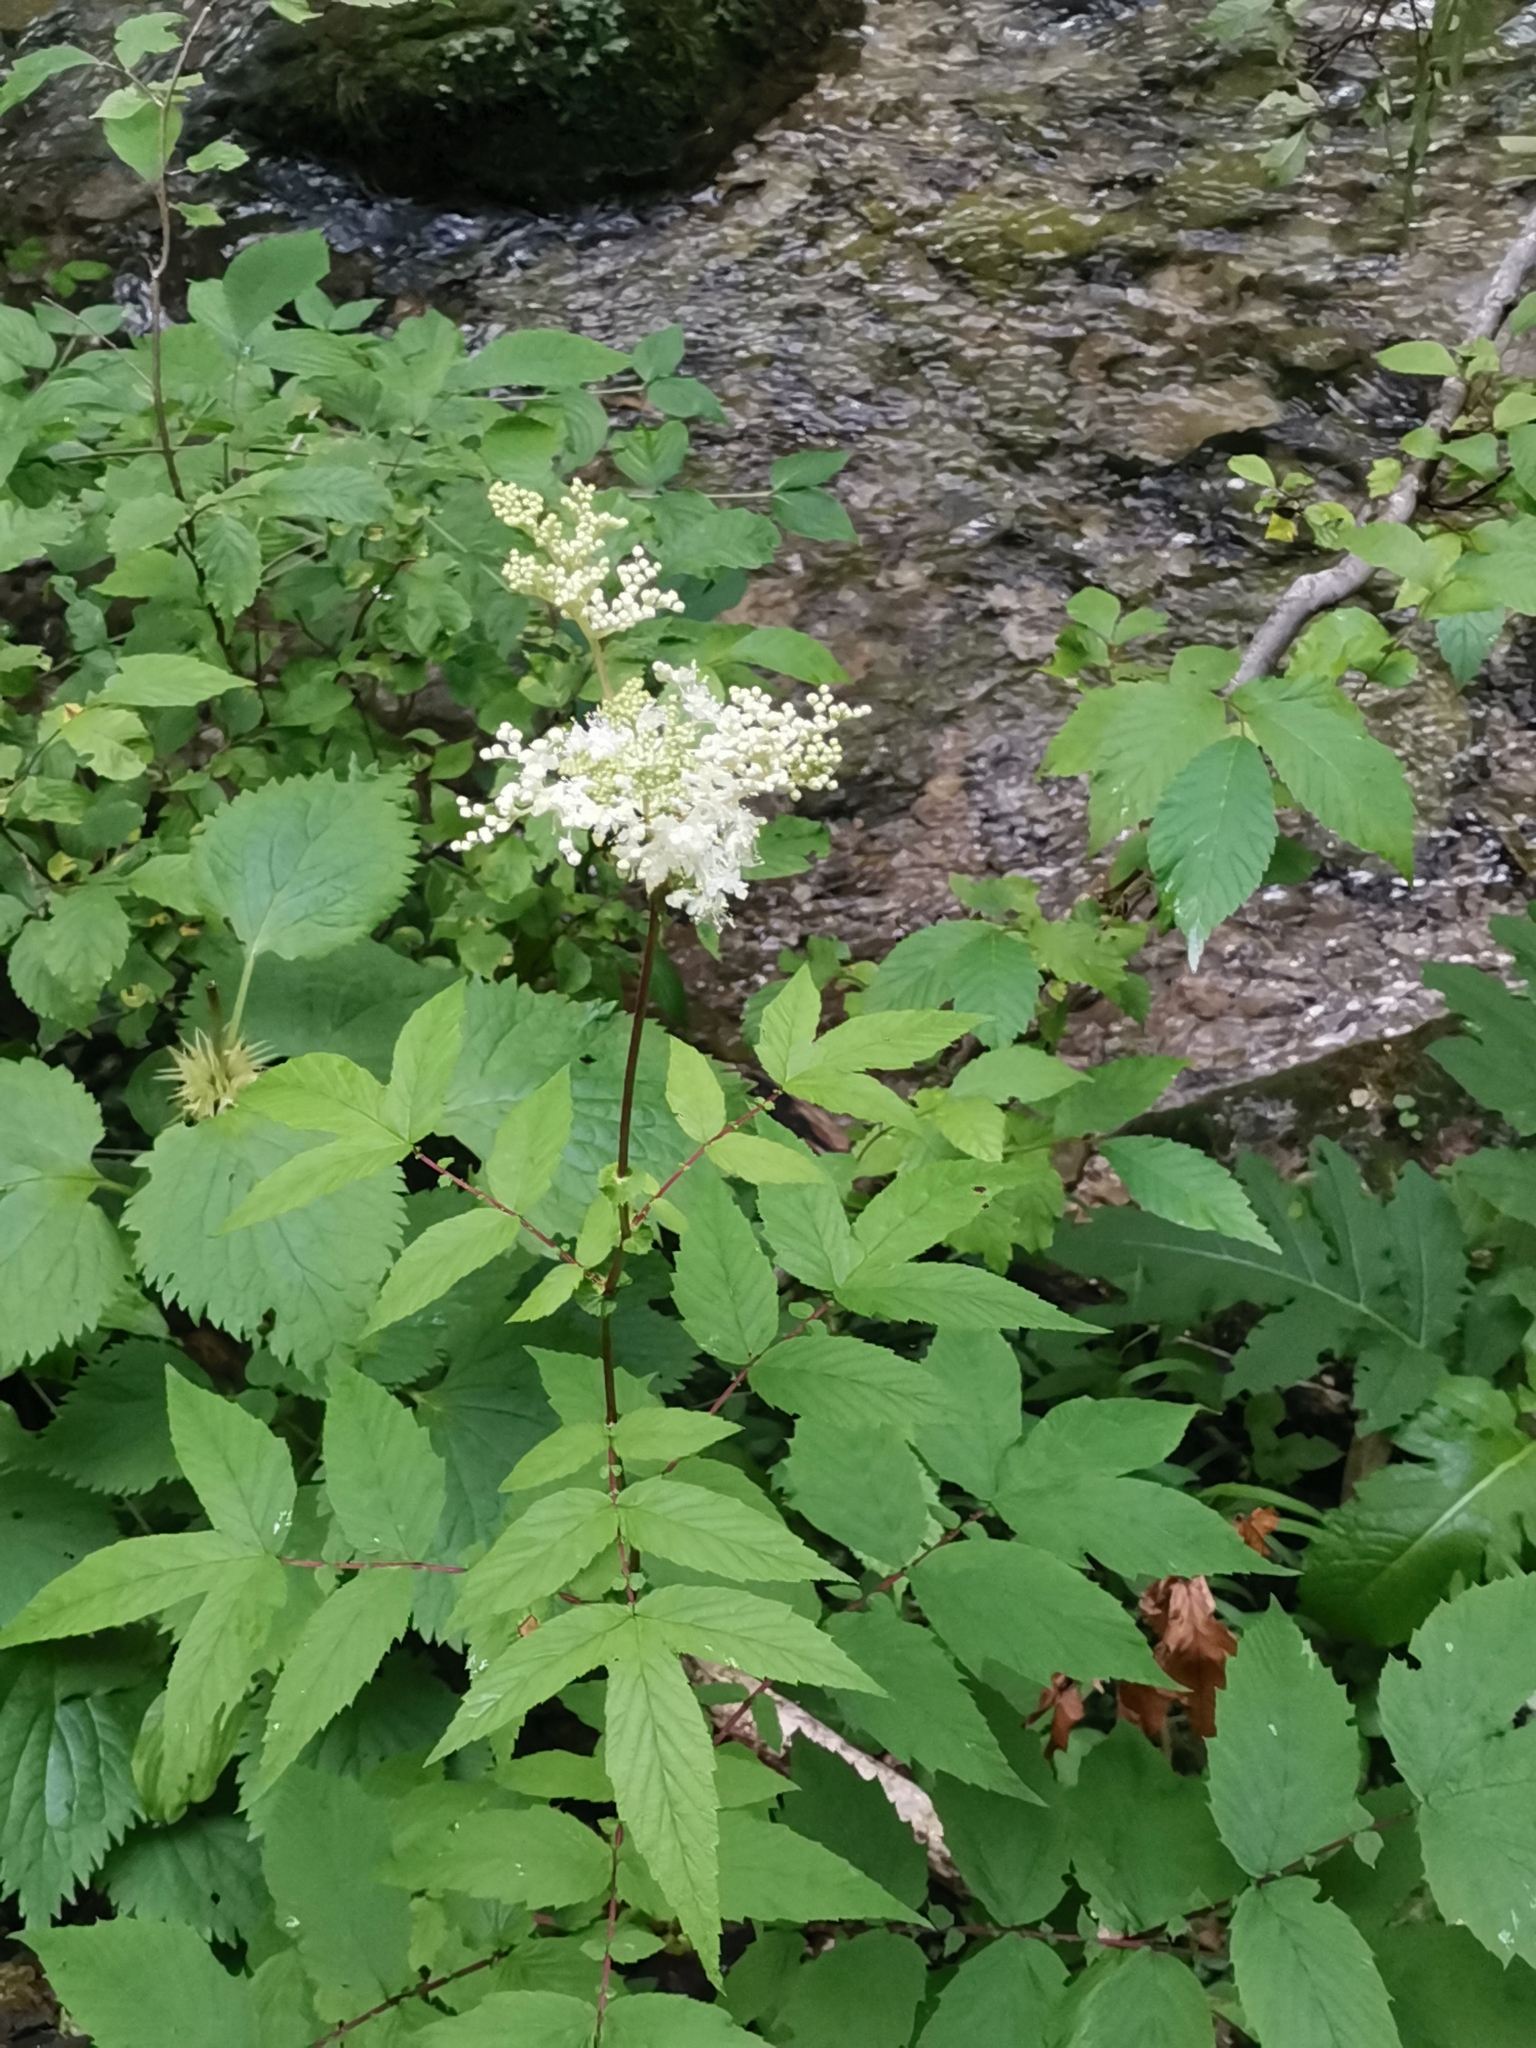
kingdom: Plantae
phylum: Tracheophyta
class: Magnoliopsida
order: Rosales
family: Rosaceae
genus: Filipendula
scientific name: Filipendula ulmaria
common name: Meadowsweet
